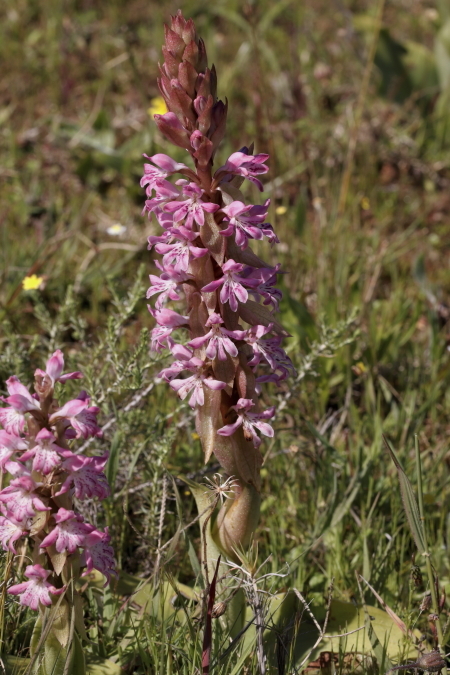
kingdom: Plantae
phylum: Tracheophyta
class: Liliopsida
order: Asparagales
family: Orchidaceae
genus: Satyrium
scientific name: Satyrium erectum
